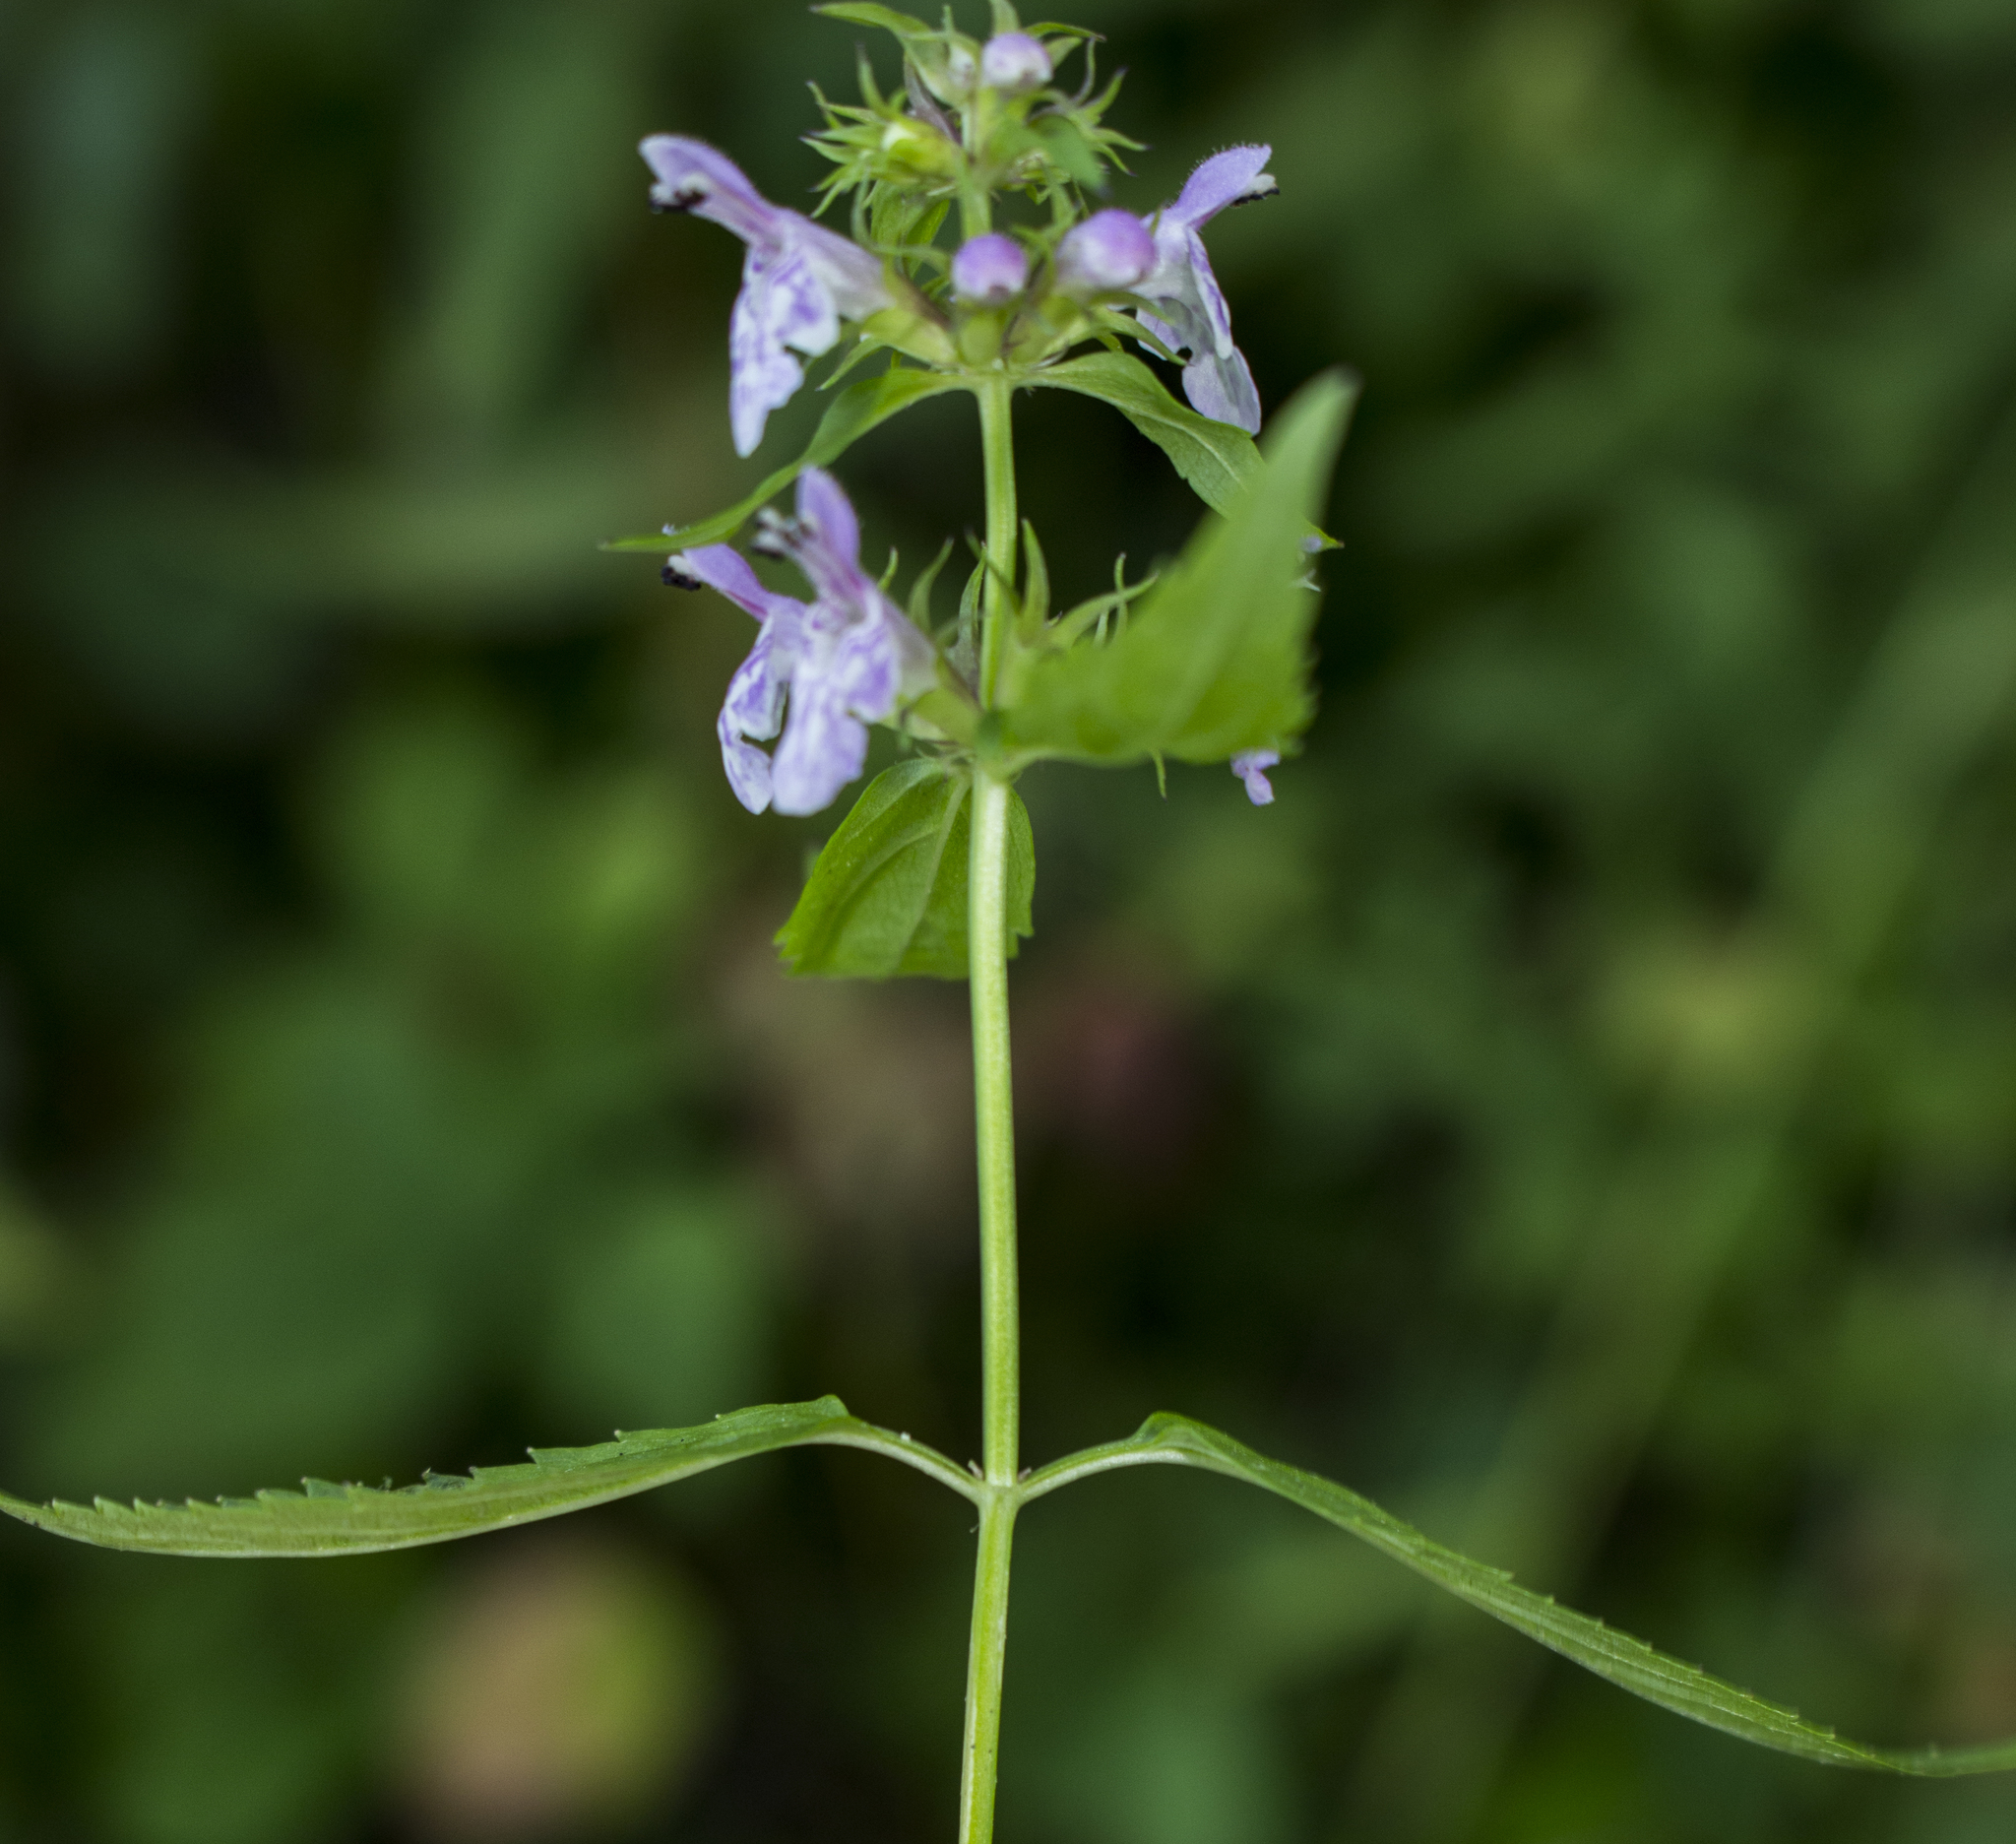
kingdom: Plantae
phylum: Tracheophyta
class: Magnoliopsida
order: Lamiales
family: Lamiaceae
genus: Stachys
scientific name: Stachys tenuifolia
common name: Smooth hedge-nettle
